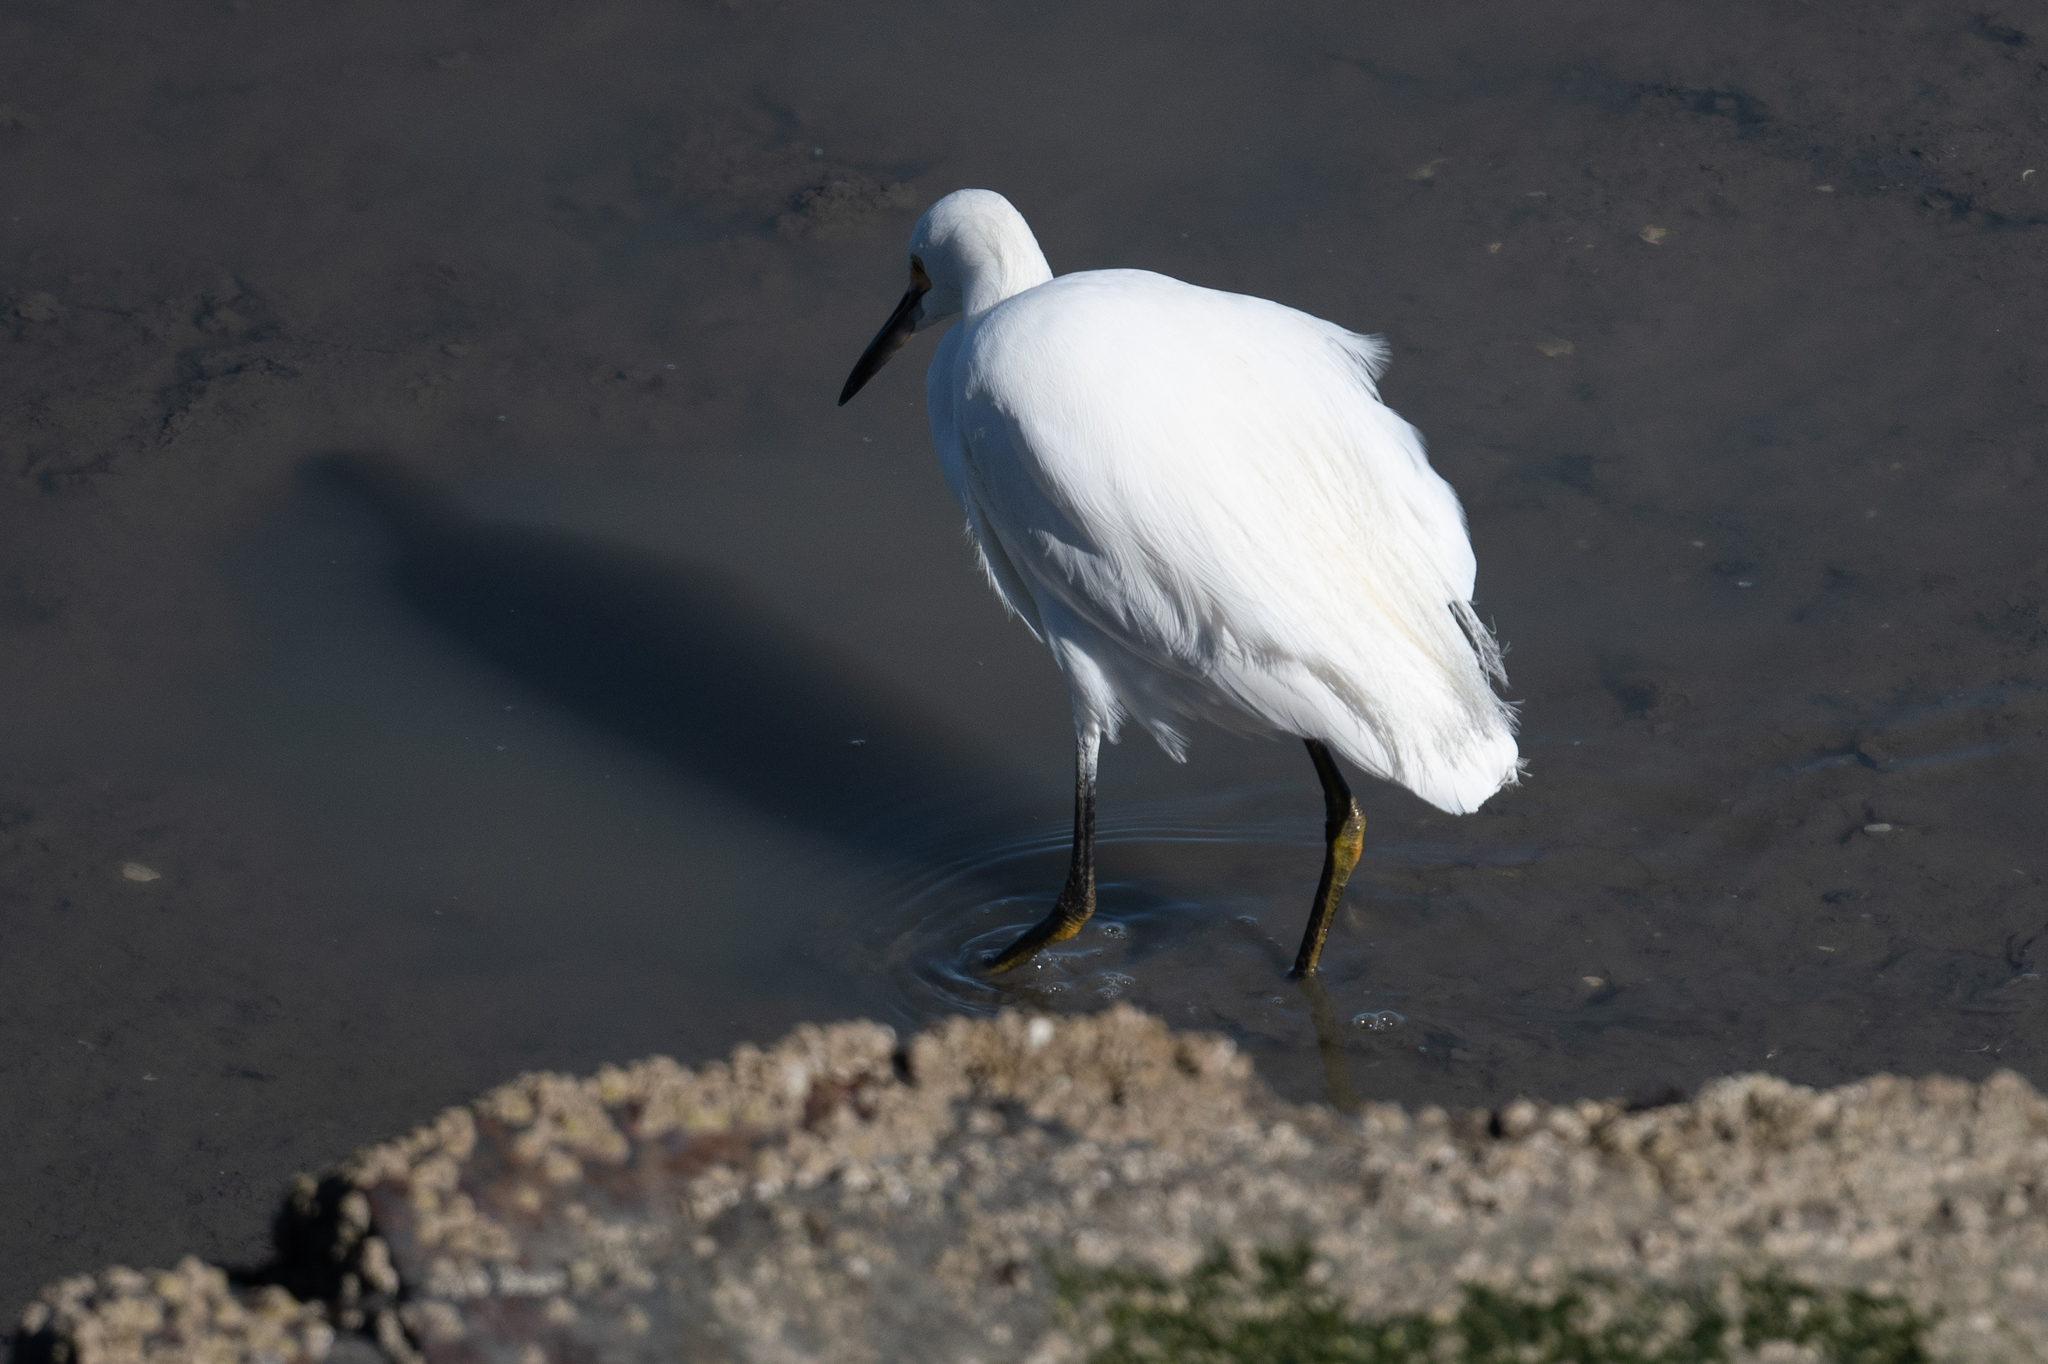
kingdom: Animalia
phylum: Chordata
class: Aves
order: Pelecaniformes
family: Ardeidae
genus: Egretta
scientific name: Egretta thula
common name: Snowy egret
